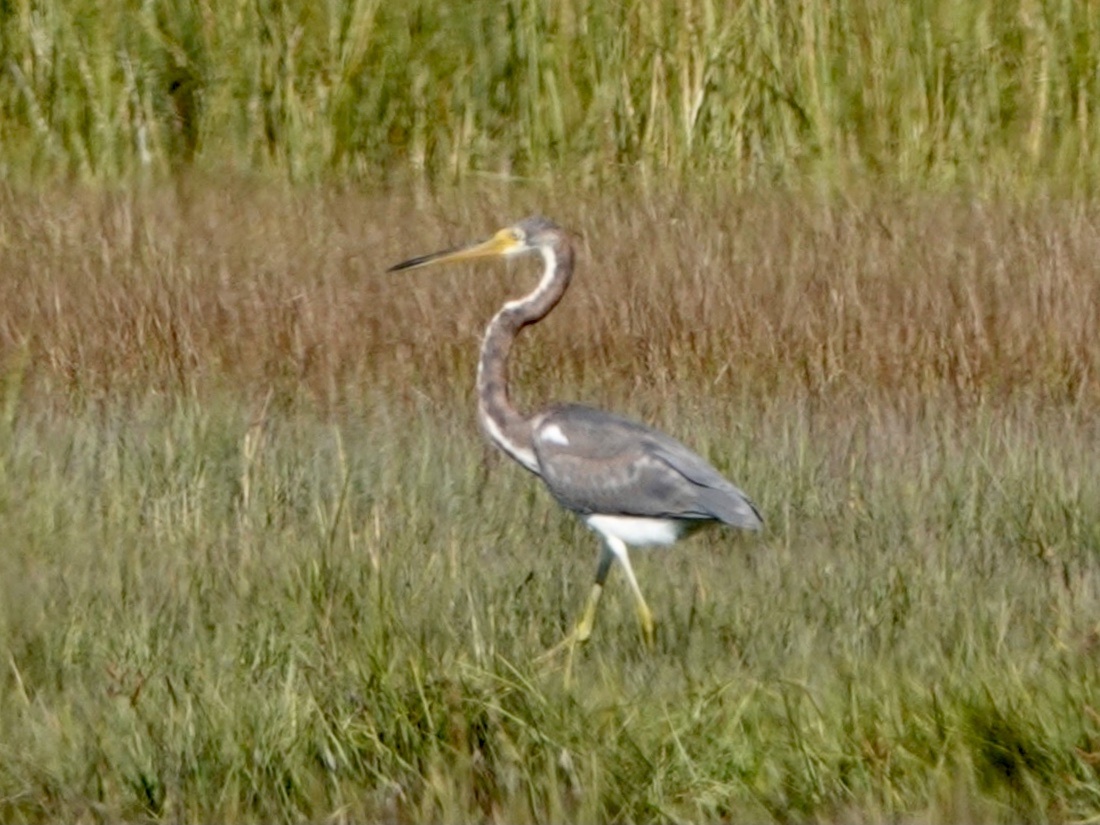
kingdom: Animalia
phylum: Chordata
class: Aves
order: Pelecaniformes
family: Ardeidae
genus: Egretta
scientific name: Egretta tricolor
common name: Tricolored heron
